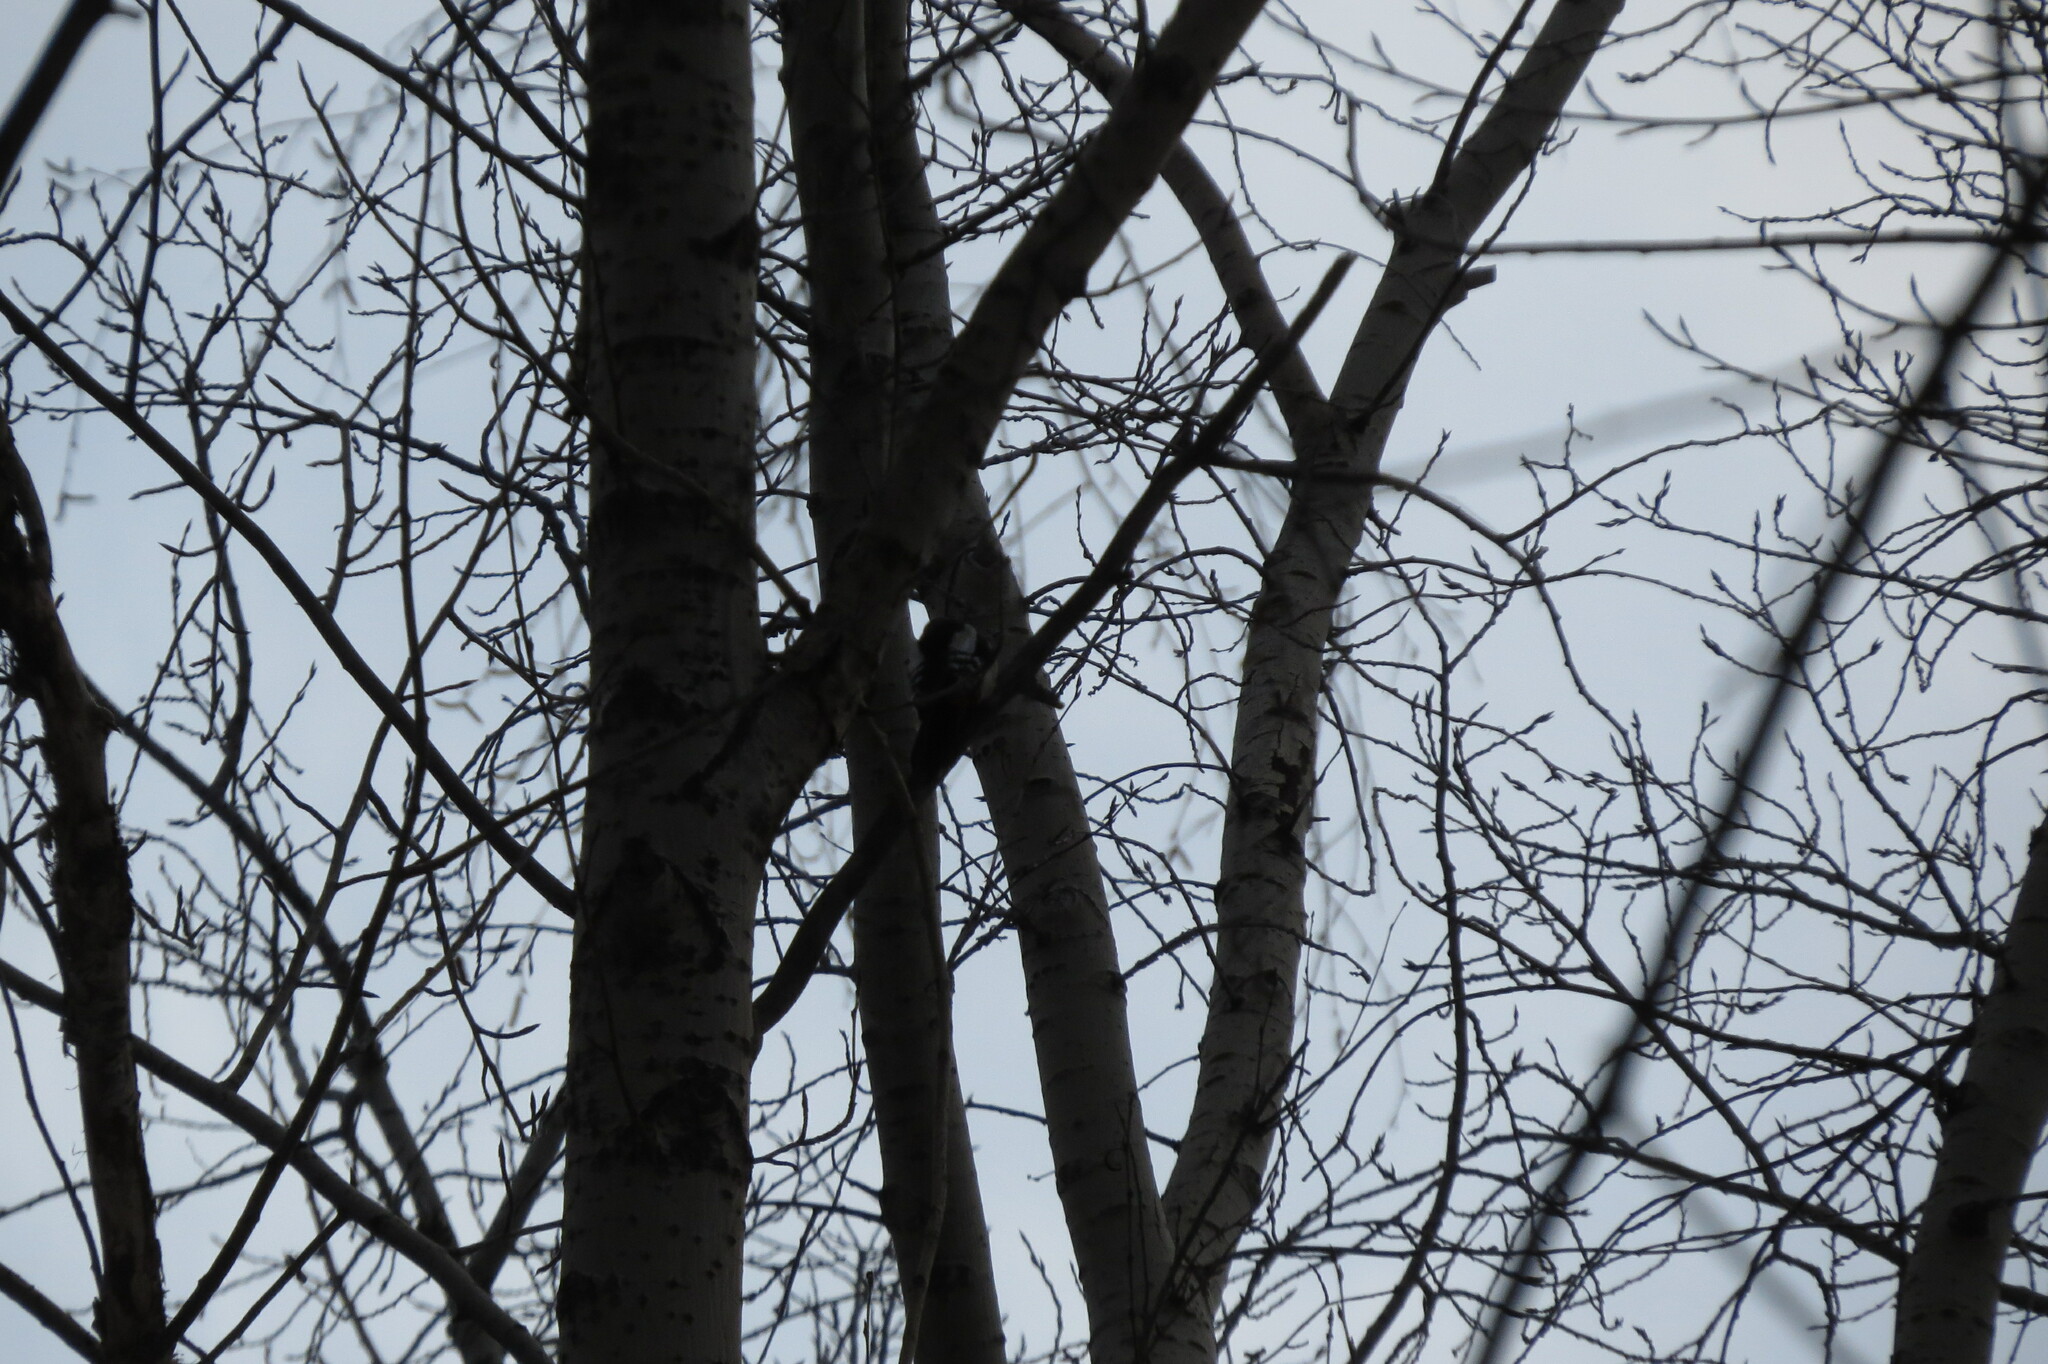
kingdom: Animalia
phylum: Chordata
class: Aves
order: Piciformes
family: Picidae
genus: Dendrocopos
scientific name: Dendrocopos major
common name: Great spotted woodpecker
